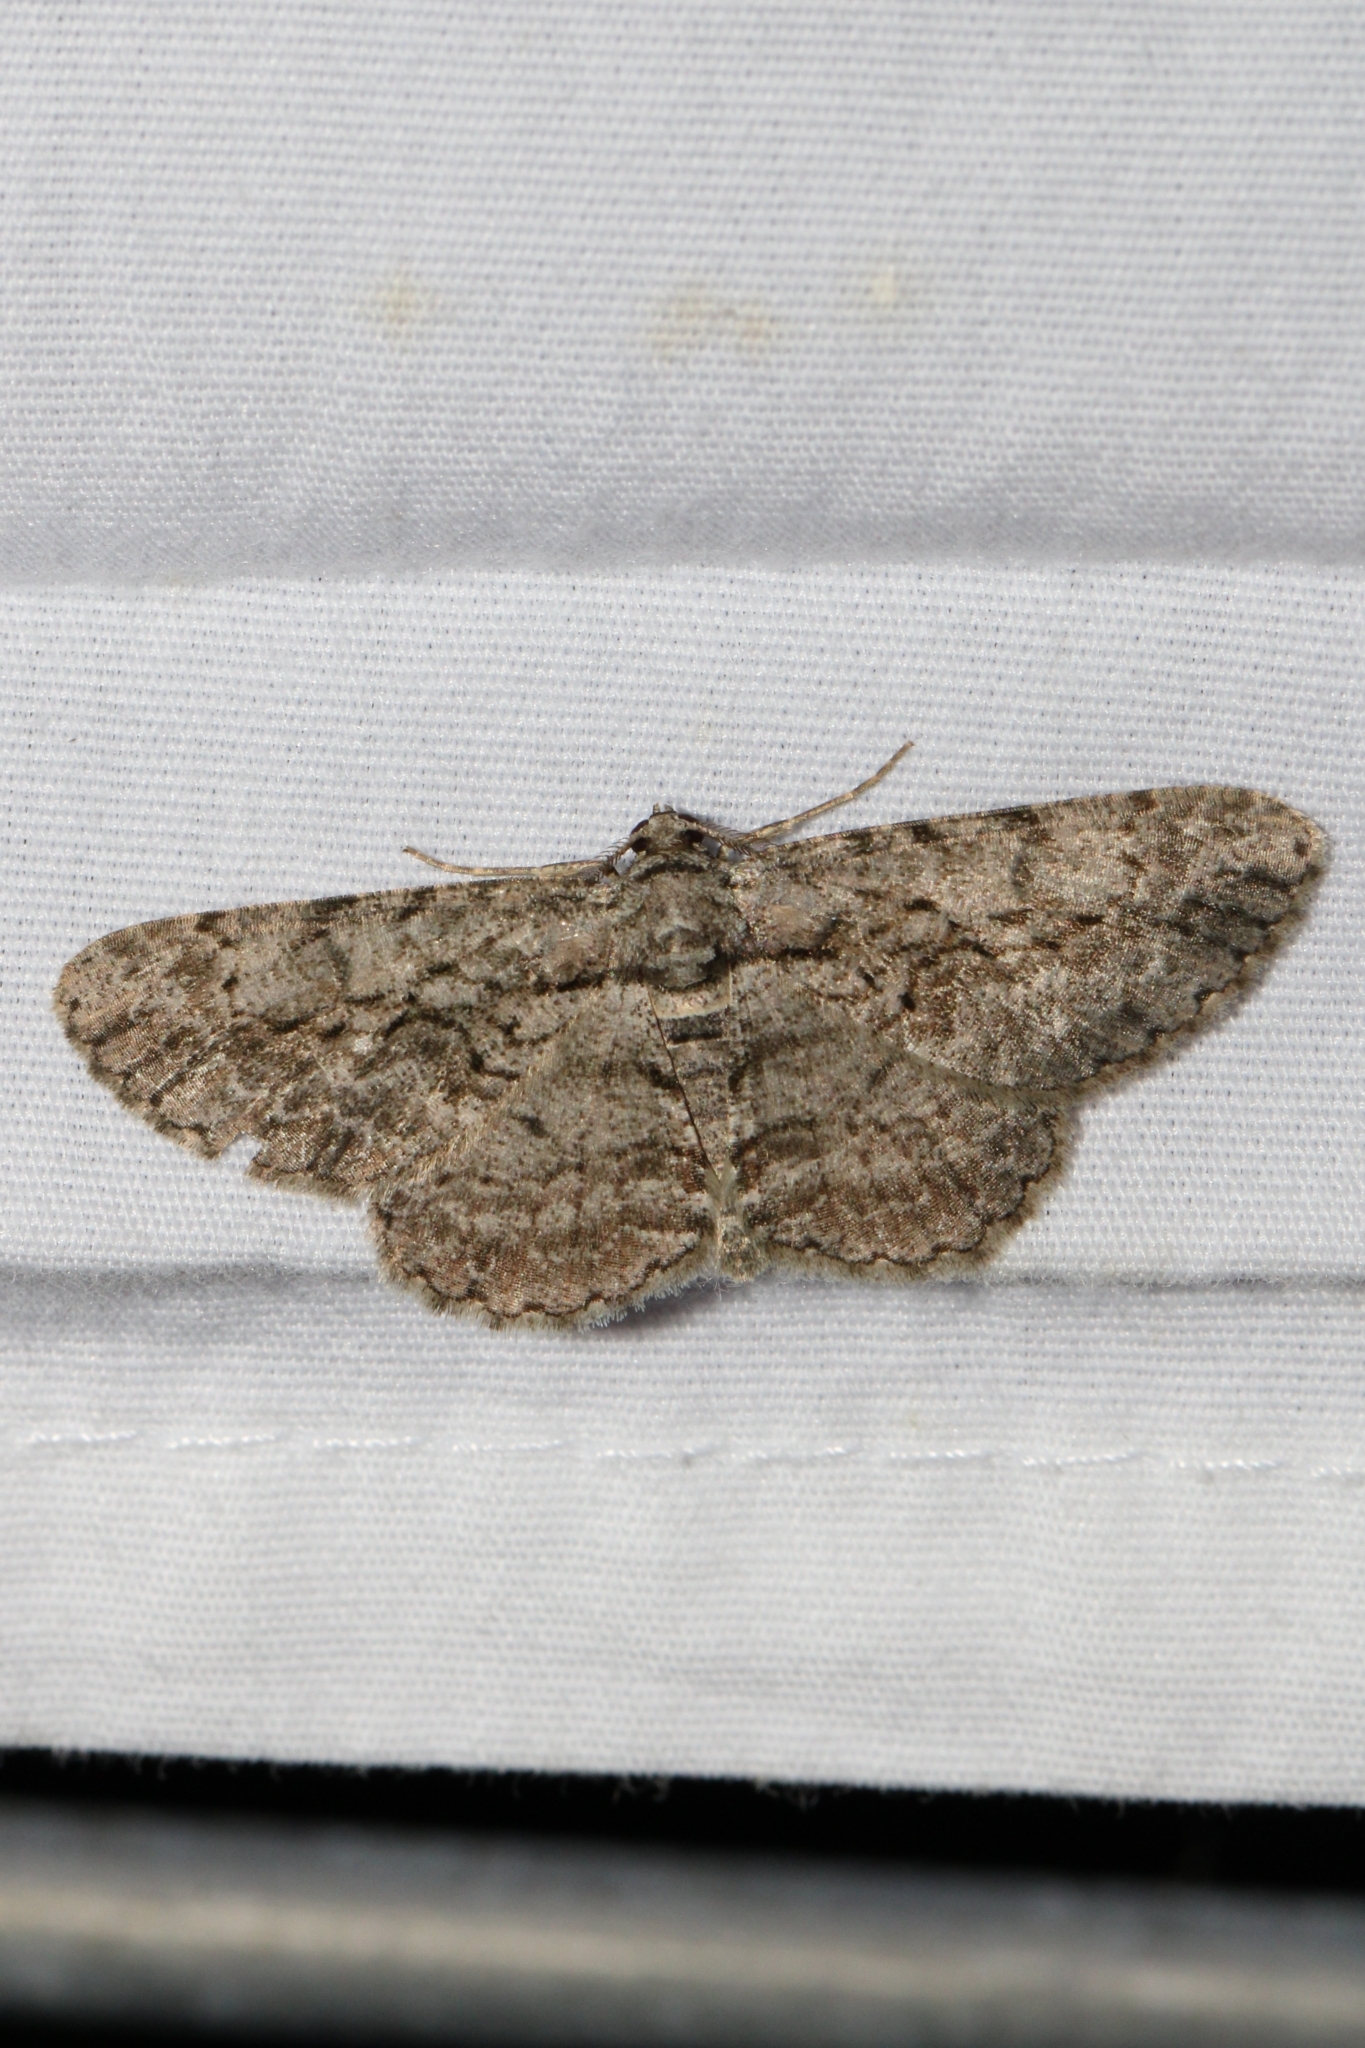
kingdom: Animalia
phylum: Arthropoda
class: Insecta
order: Lepidoptera
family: Geometridae
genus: Anavitrinella
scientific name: Anavitrinella pampinaria
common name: Common gray
